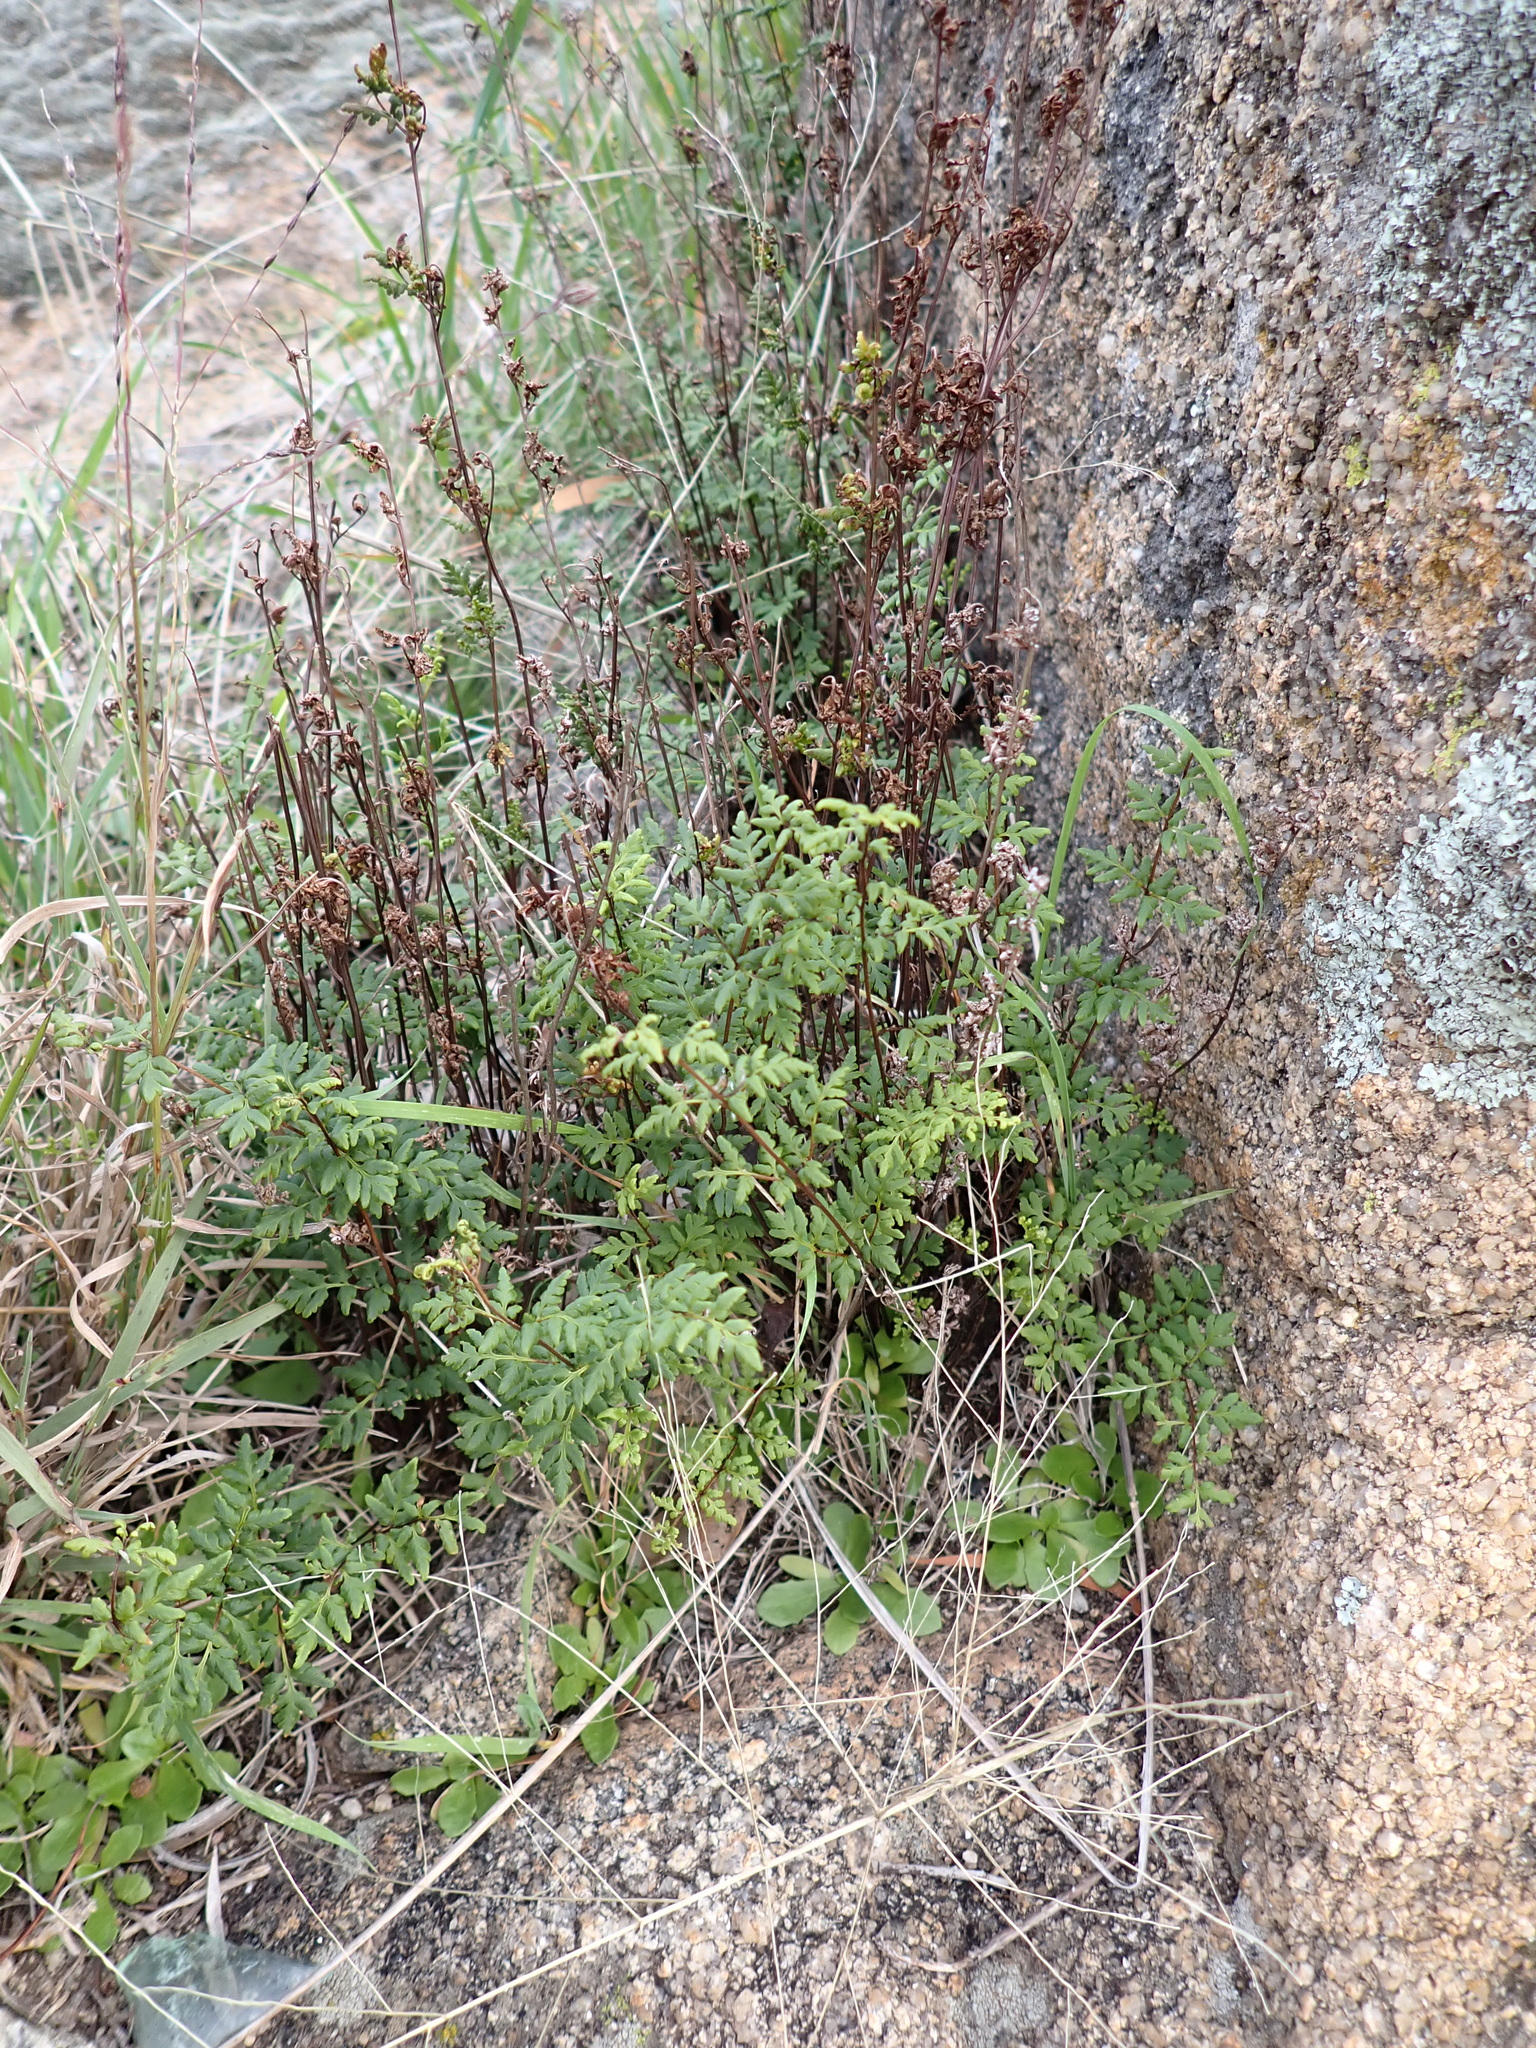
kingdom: Plantae
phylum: Tracheophyta
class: Polypodiopsida
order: Polypodiales
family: Pteridaceae
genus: Cheilanthes
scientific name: Cheilanthes austrotenuifolia
